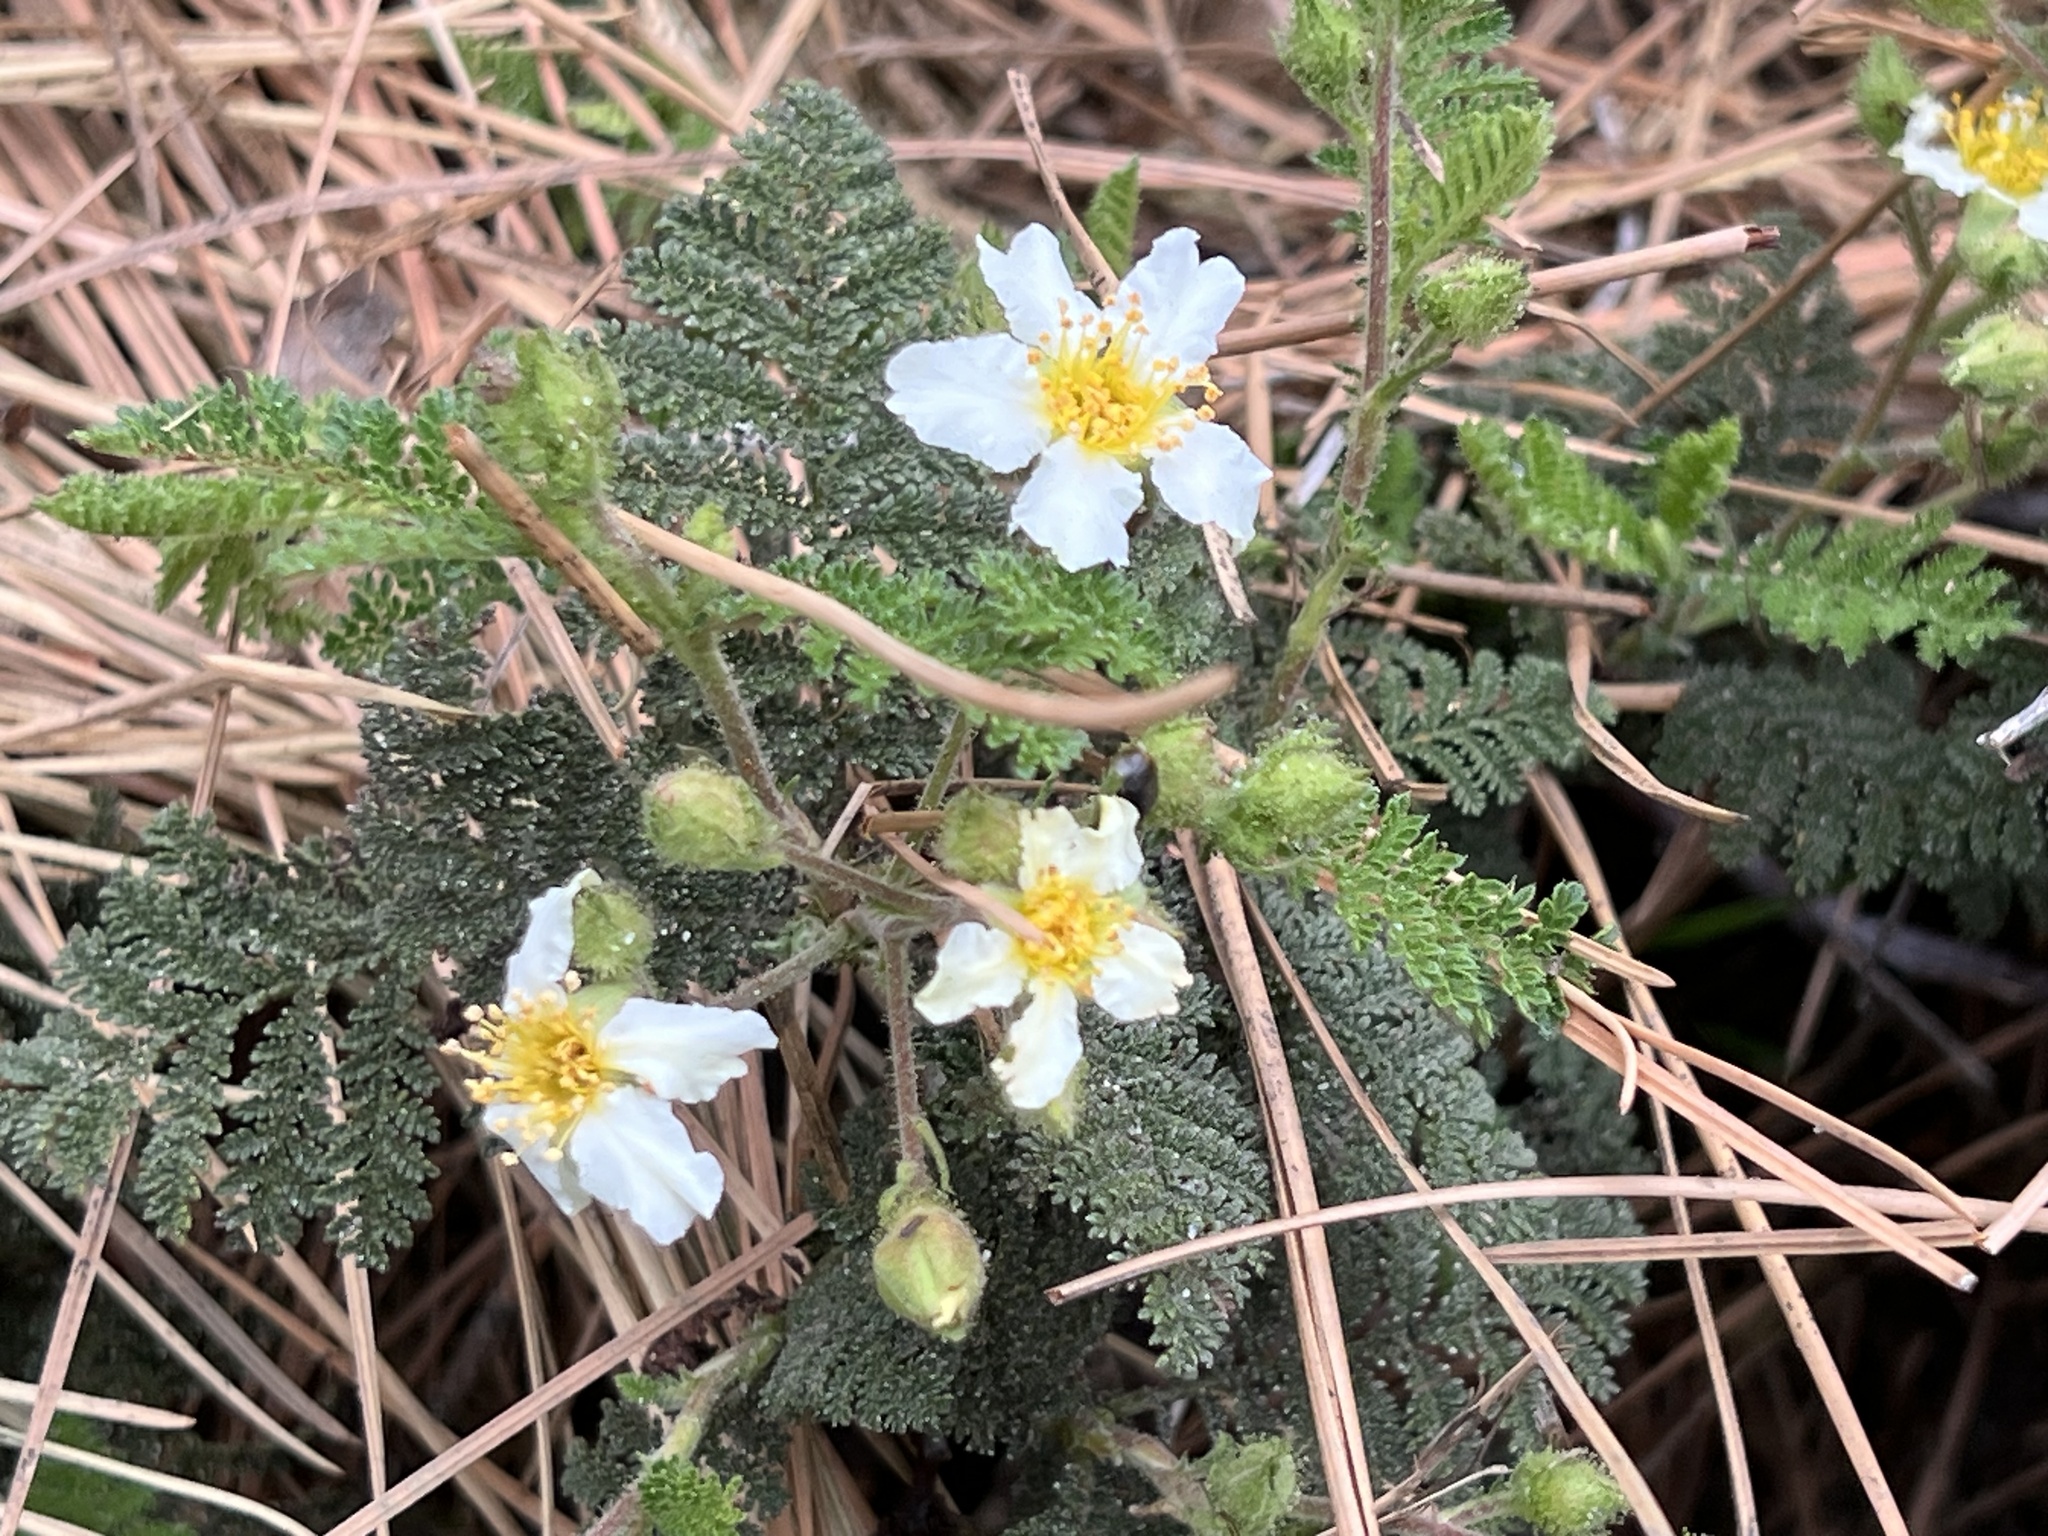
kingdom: Plantae
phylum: Tracheophyta
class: Magnoliopsida
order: Rosales
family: Rosaceae
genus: Chamaebatia
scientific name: Chamaebatia foliolosa
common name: Mountain misery
